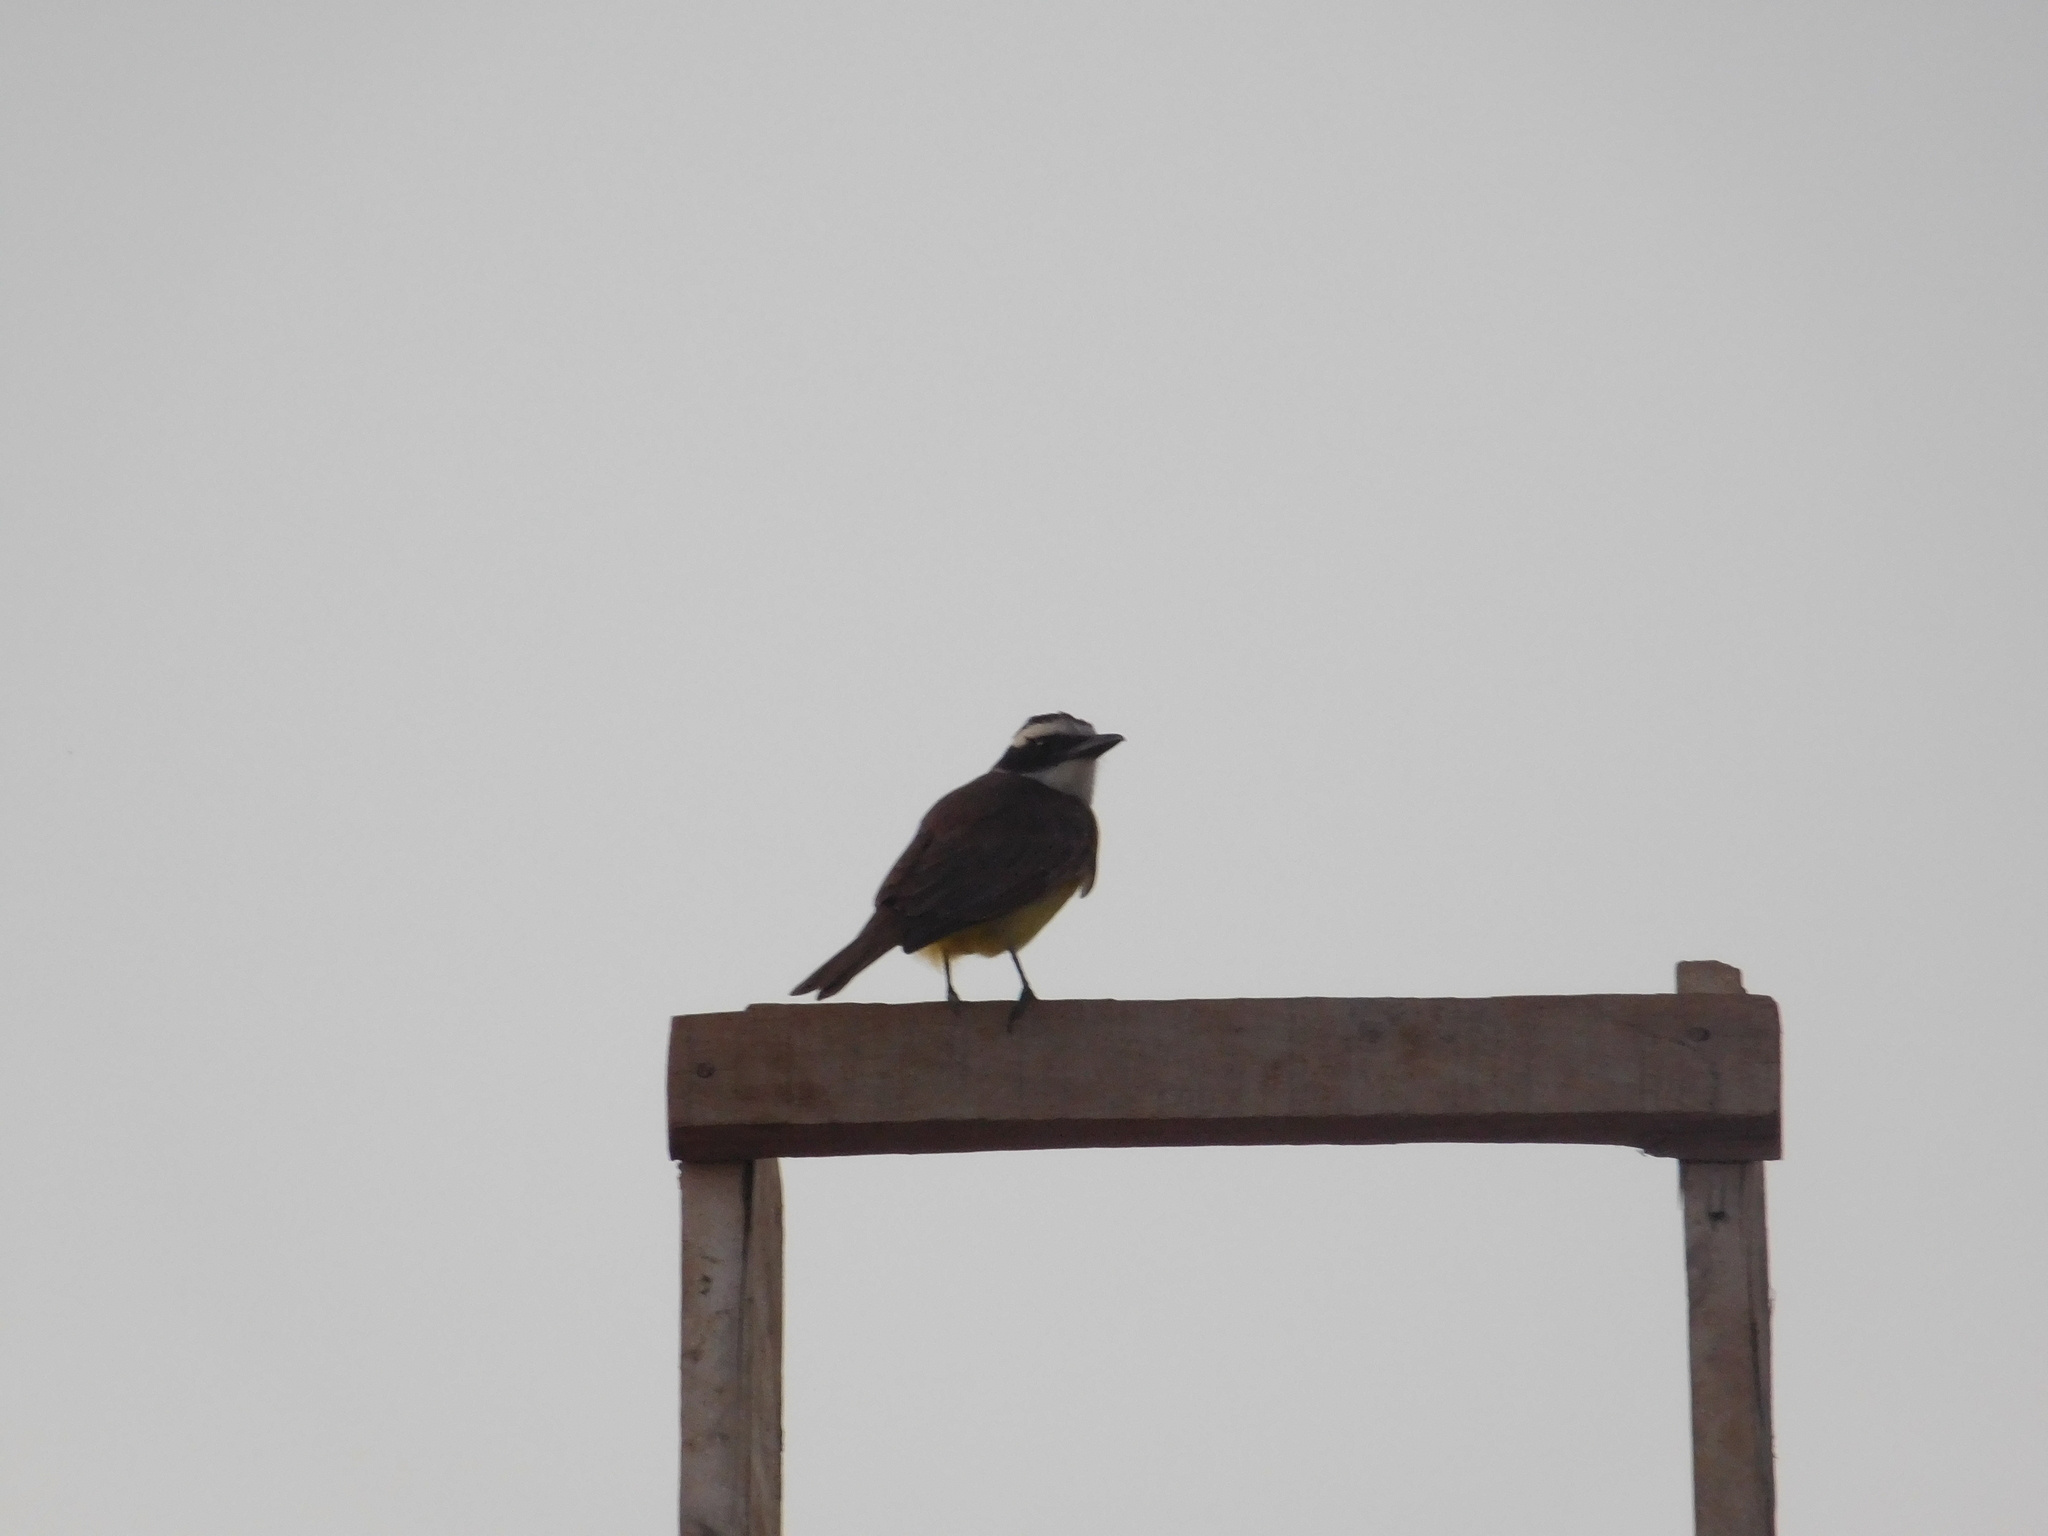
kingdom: Animalia
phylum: Chordata
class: Aves
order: Passeriformes
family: Tyrannidae
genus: Pitangus
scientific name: Pitangus sulphuratus
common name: Great kiskadee
